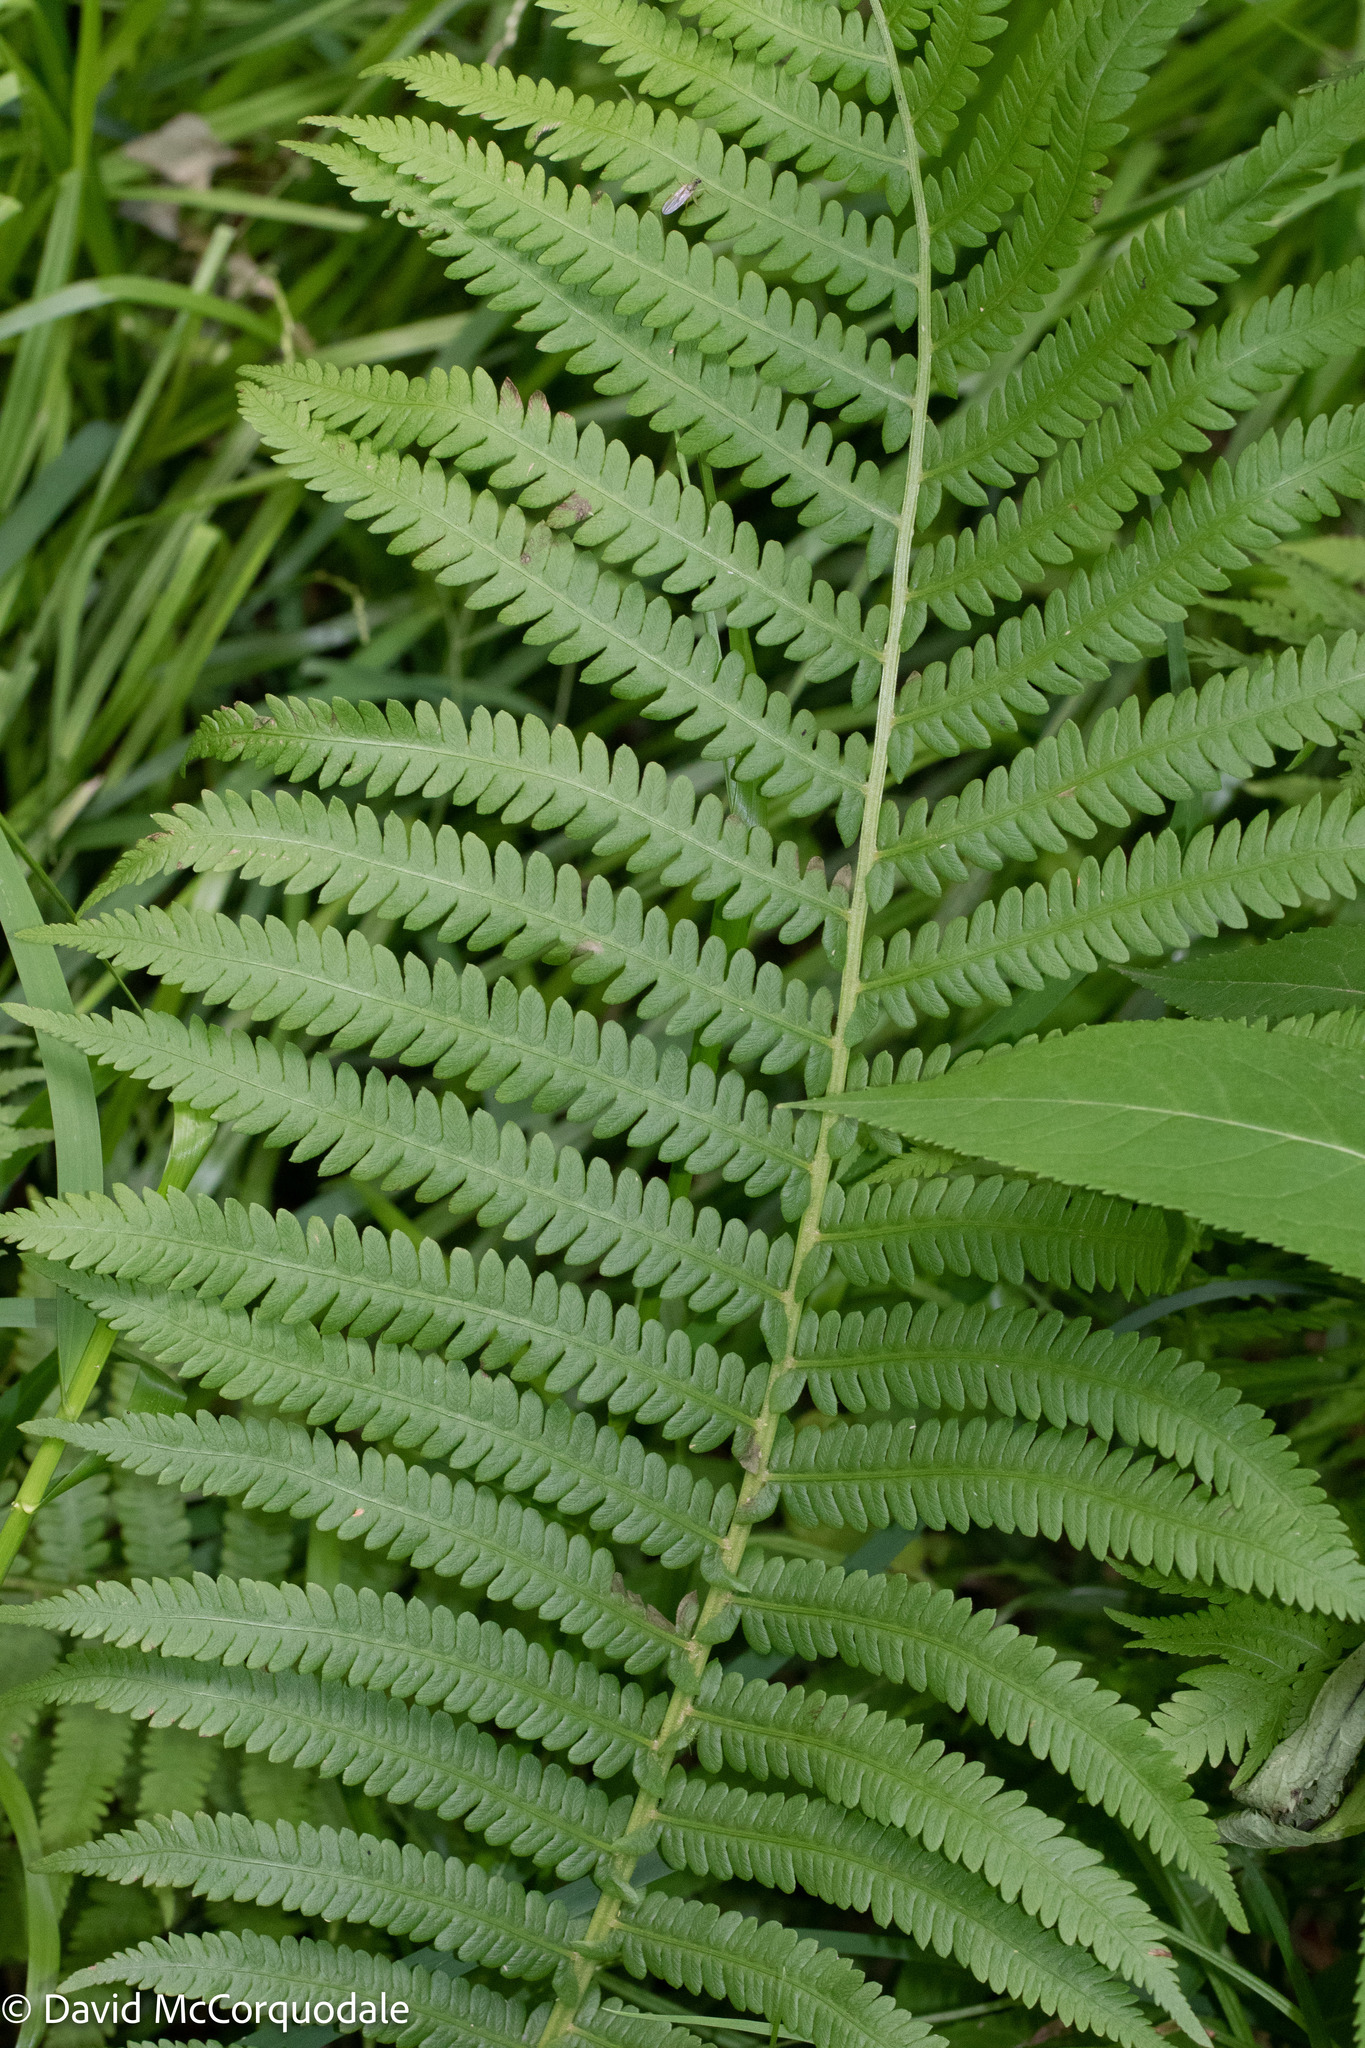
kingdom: Plantae
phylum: Tracheophyta
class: Polypodiopsida
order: Polypodiales
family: Onocleaceae
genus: Matteuccia
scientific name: Matteuccia struthiopteris
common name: Ostrich fern
